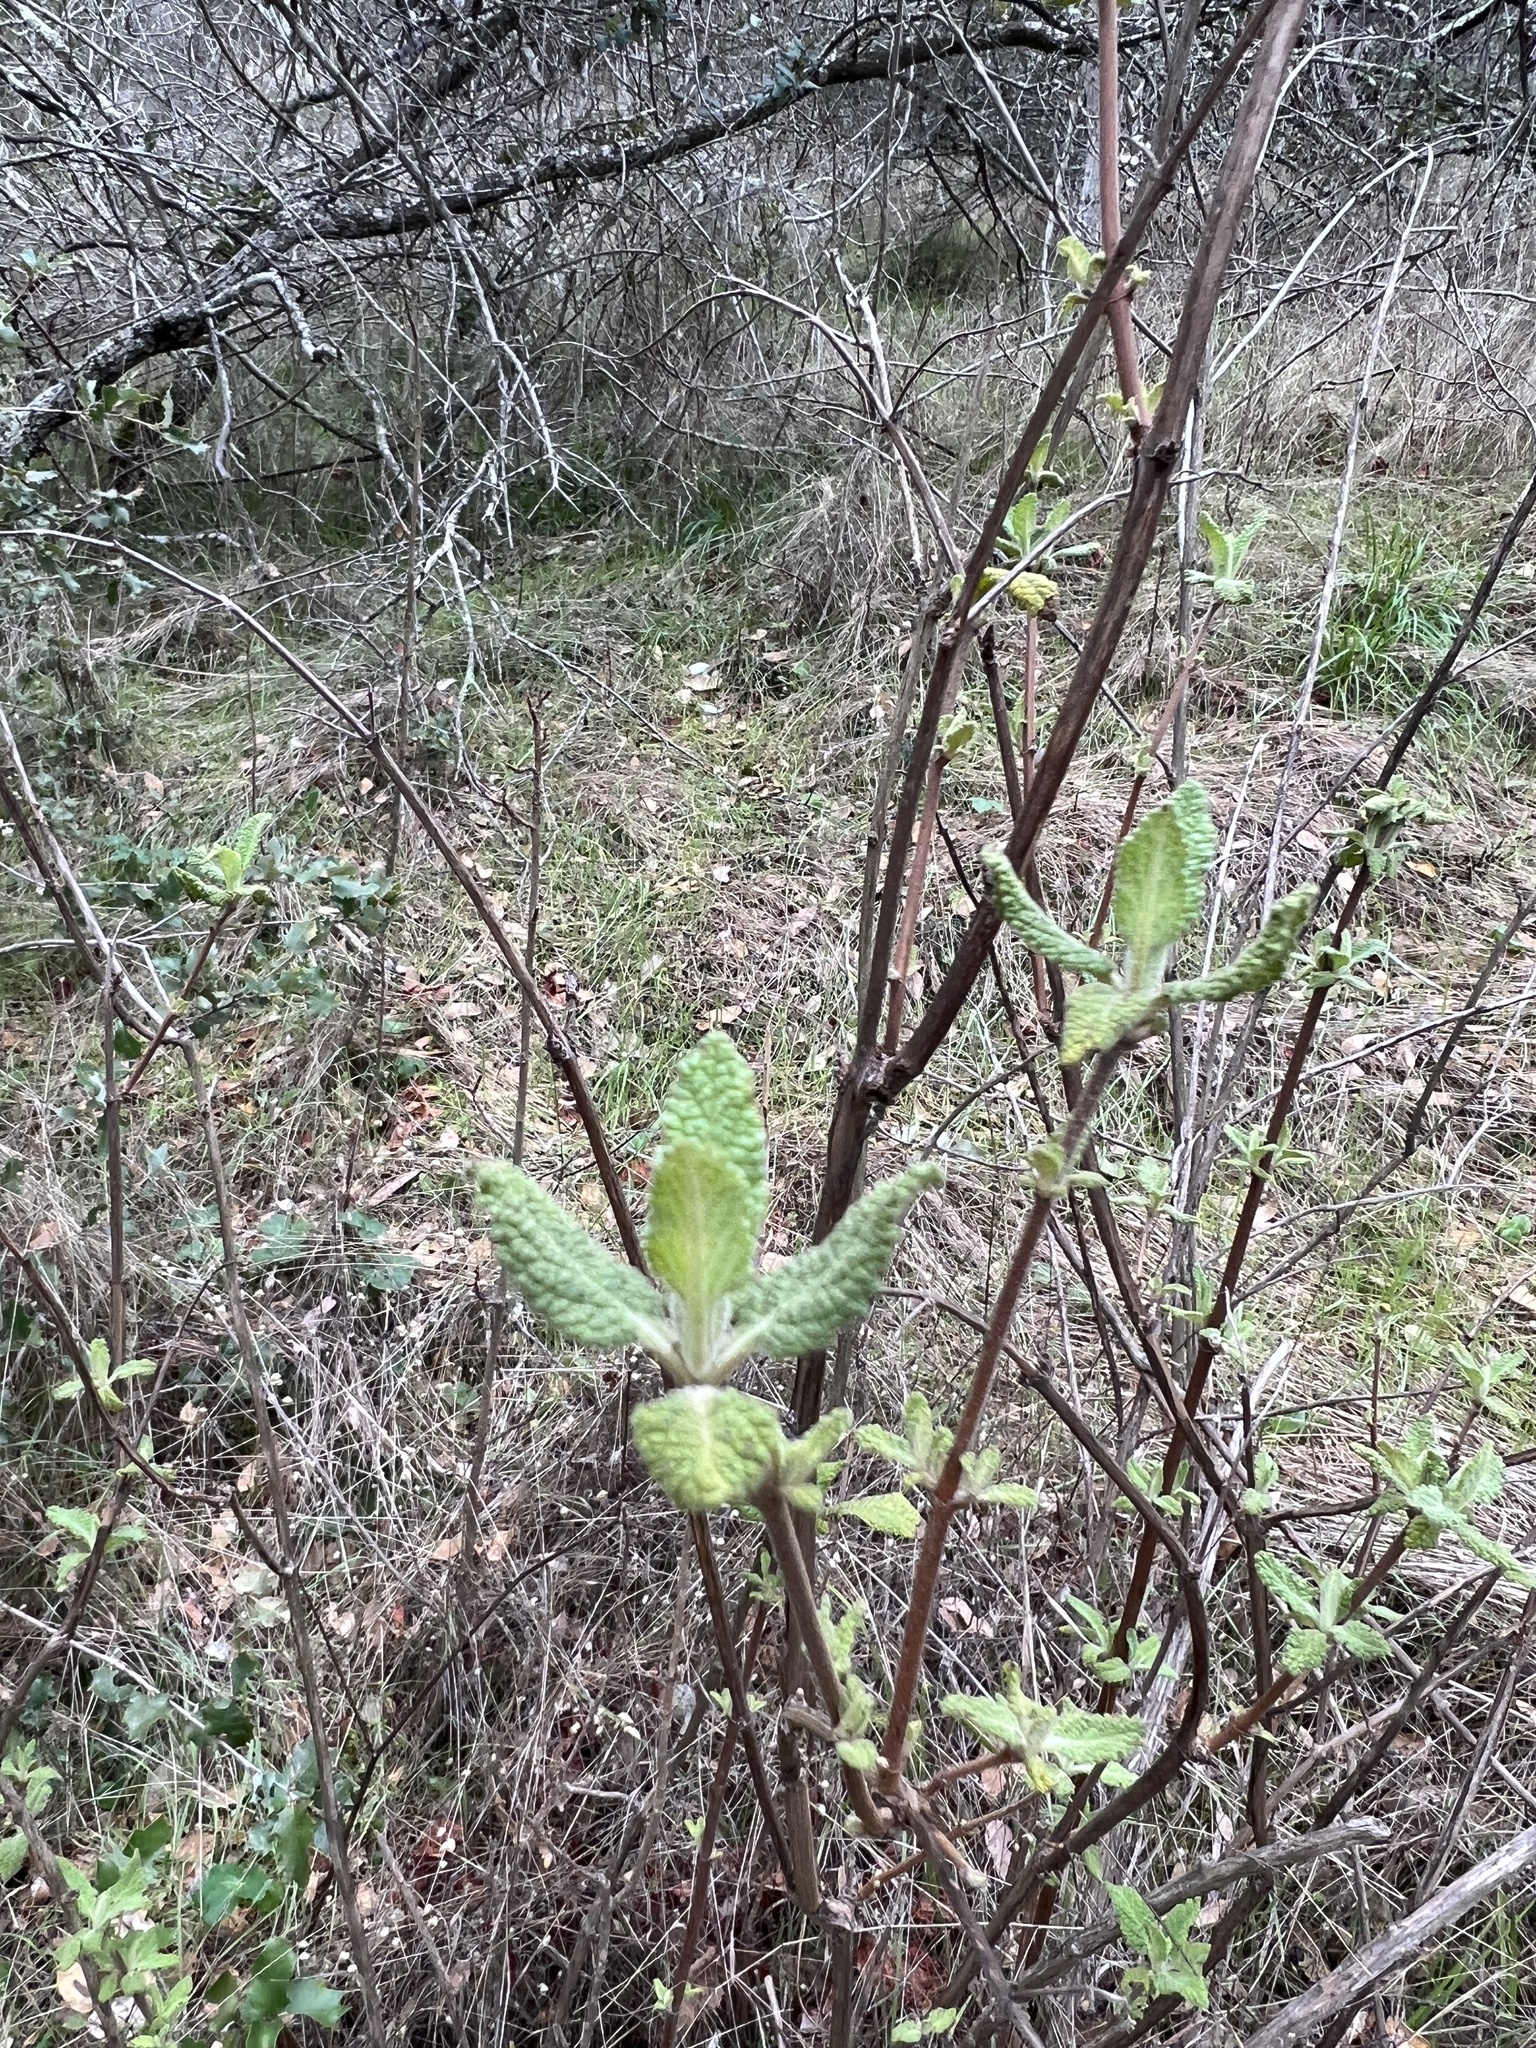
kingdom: Plantae
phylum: Tracheophyta
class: Magnoliopsida
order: Lamiales
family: Lamiaceae
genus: Lepechinia
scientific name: Lepechinia calycina
